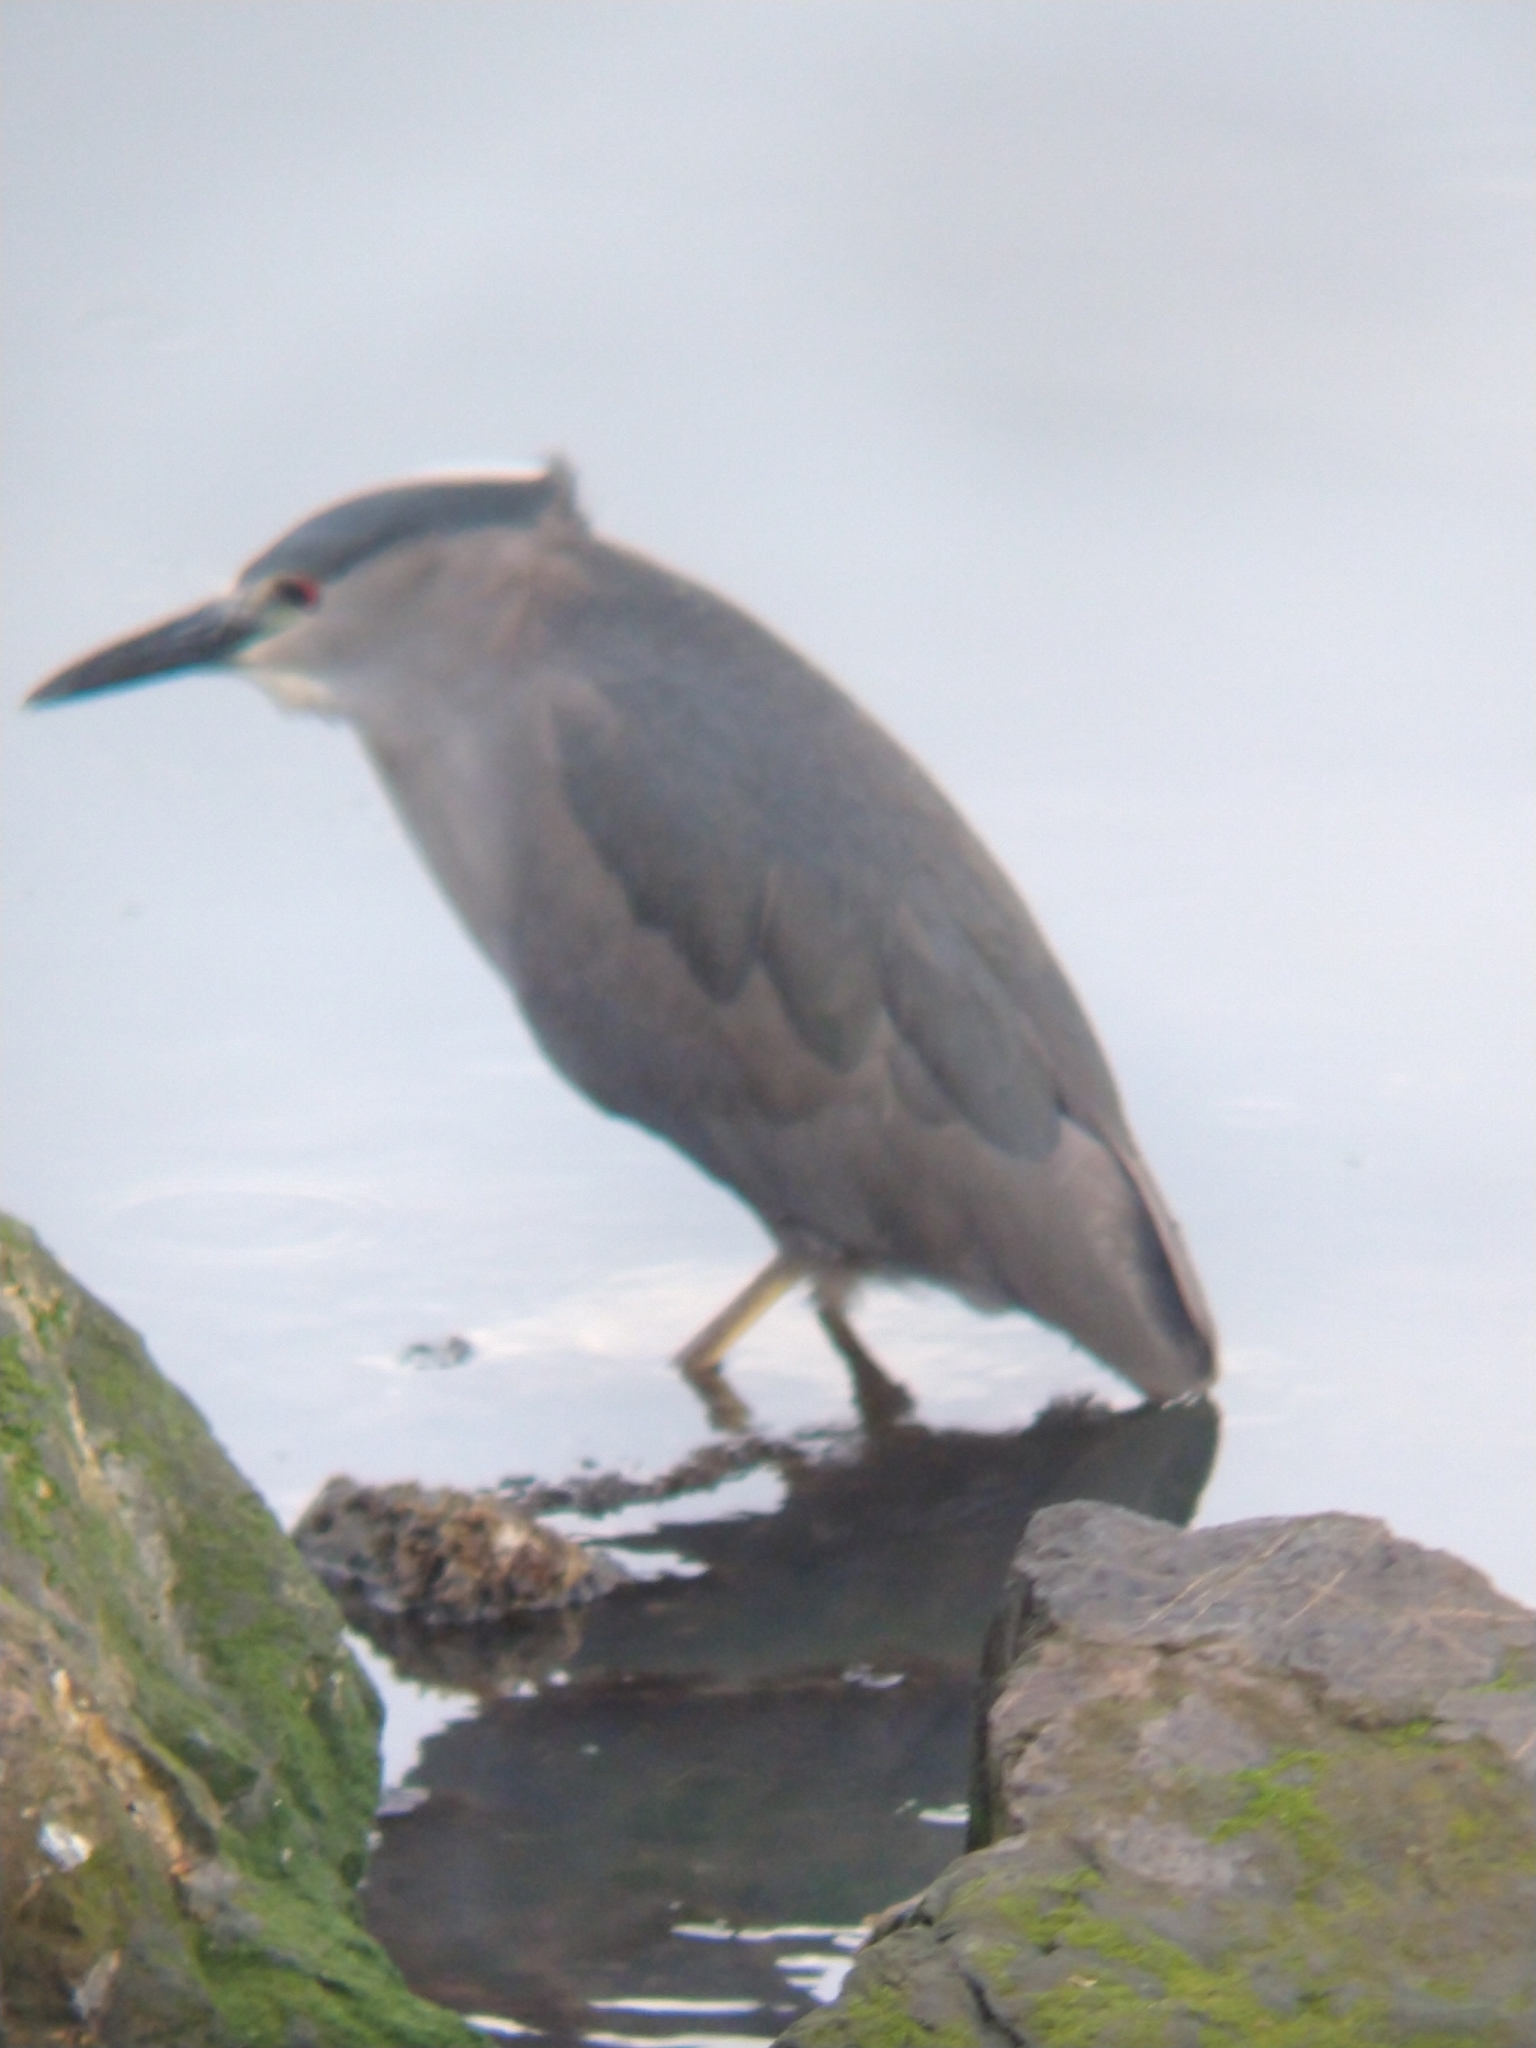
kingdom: Animalia
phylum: Chordata
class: Aves
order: Pelecaniformes
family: Ardeidae
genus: Nycticorax
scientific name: Nycticorax nycticorax
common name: Black-crowned night heron
